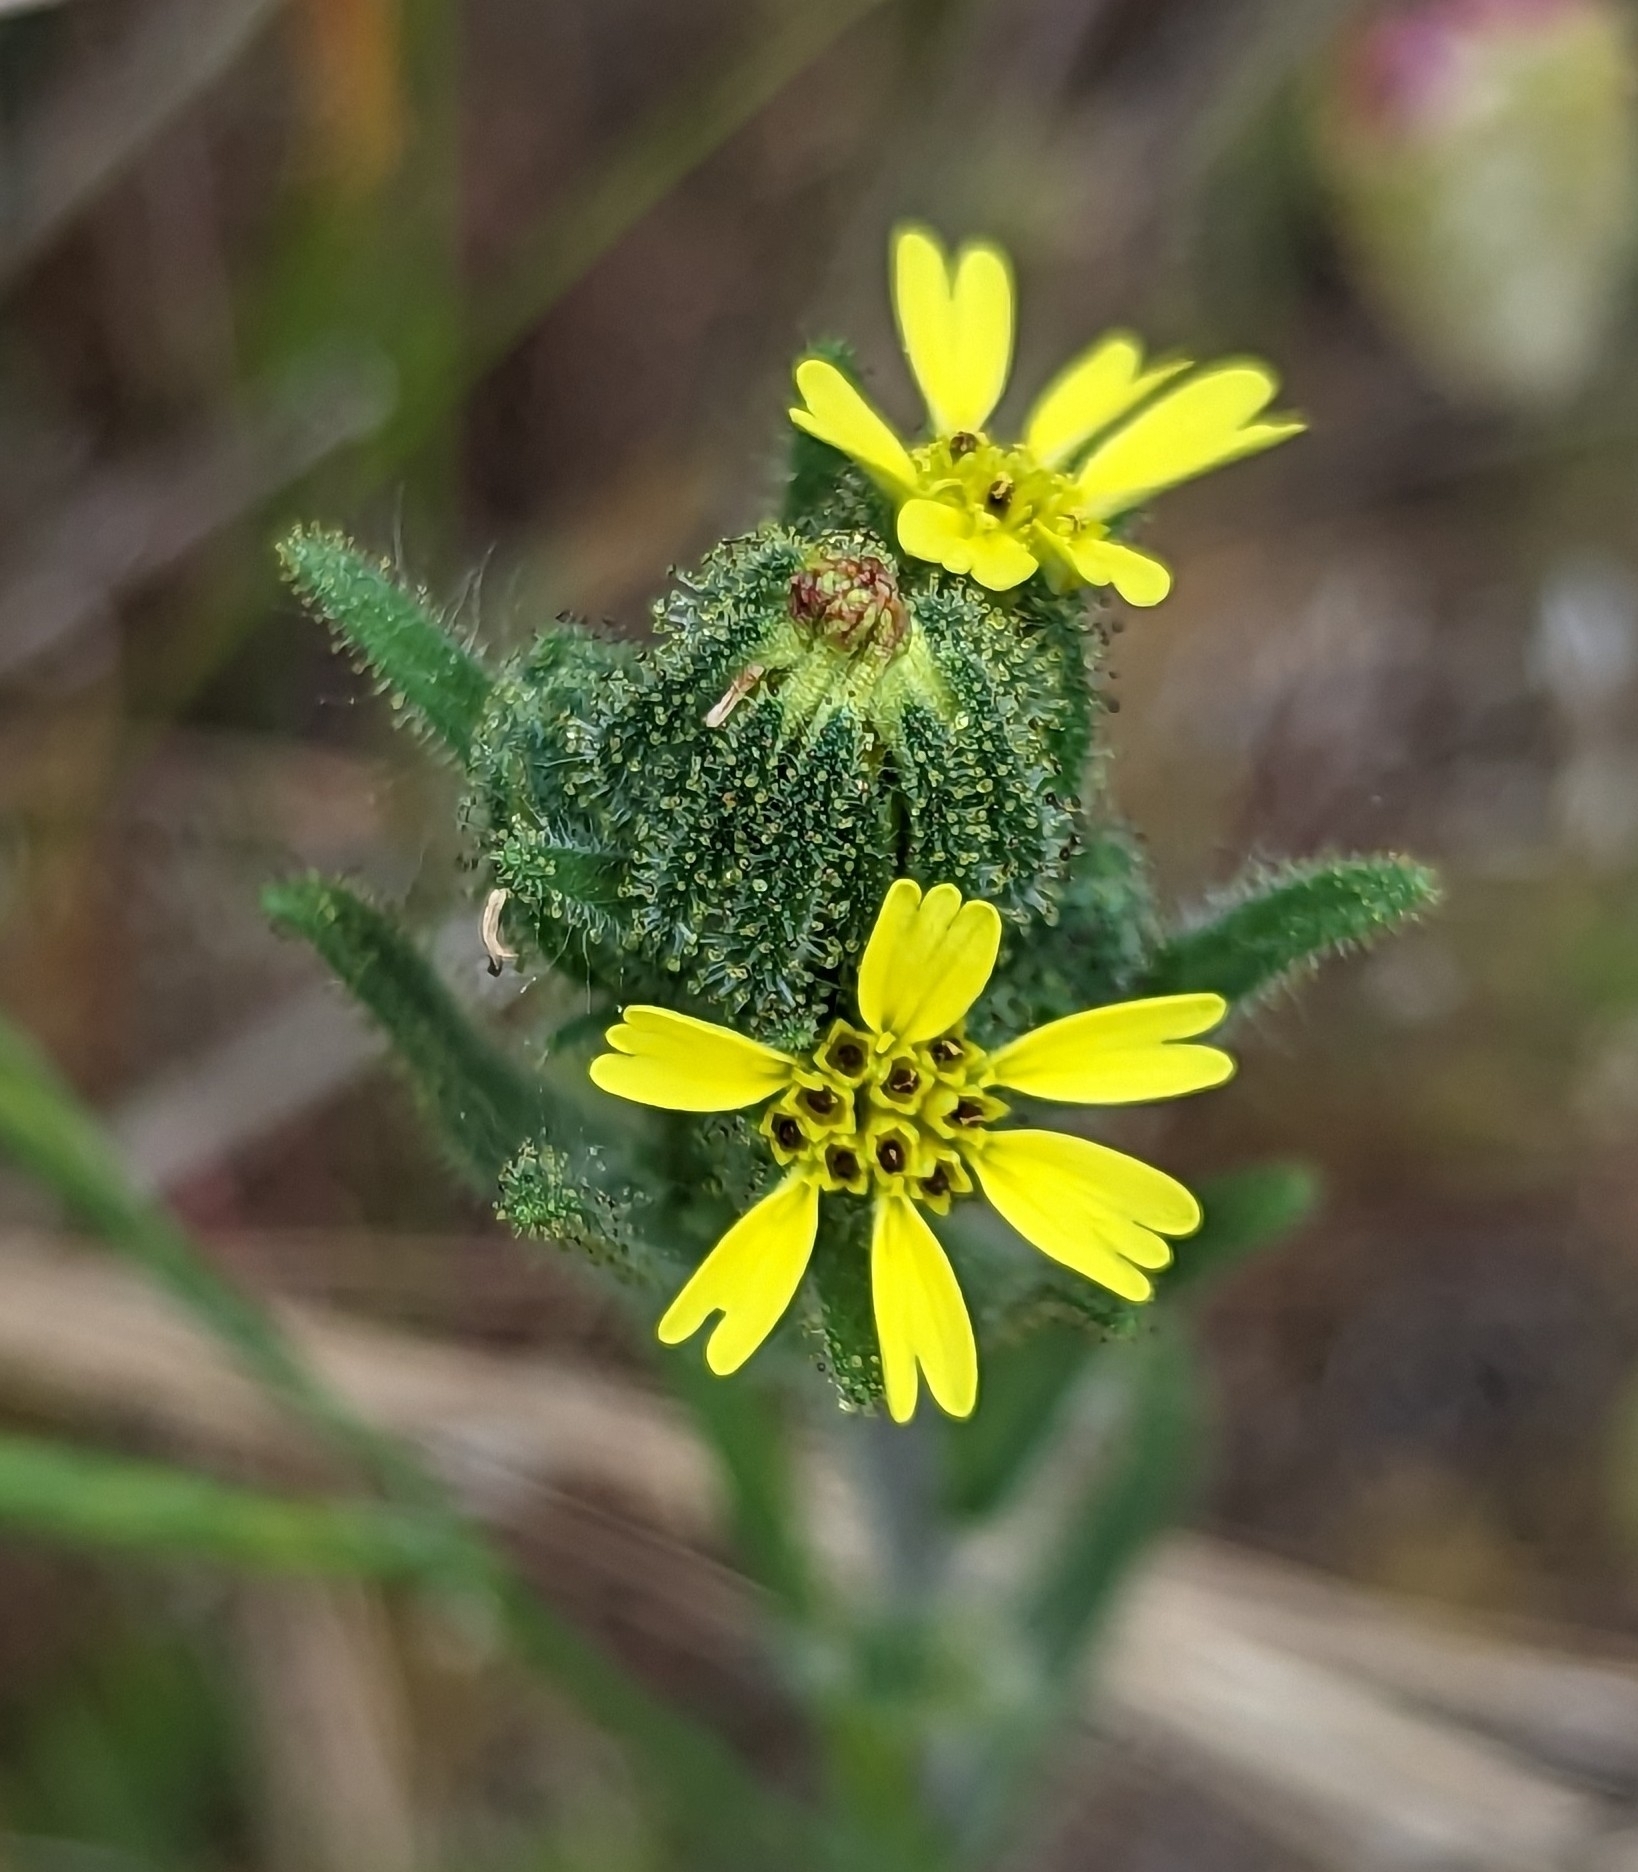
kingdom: Plantae
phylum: Tracheophyta
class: Magnoliopsida
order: Asterales
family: Asteraceae
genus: Madia
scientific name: Madia sativa
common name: Coast tarweed
